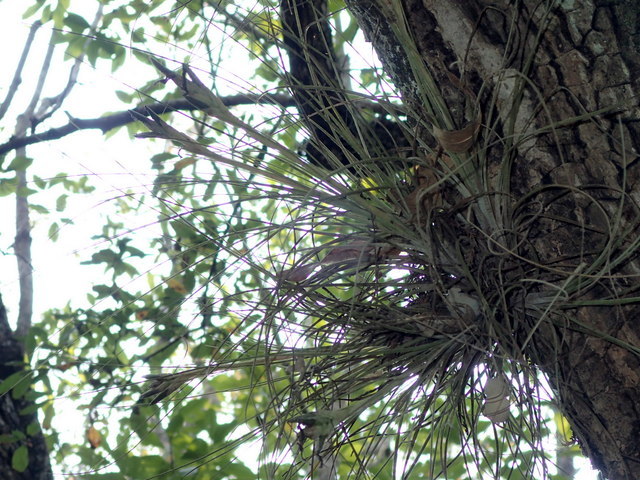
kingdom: Plantae
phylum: Tracheophyta
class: Liliopsida
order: Poales
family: Bromeliaceae
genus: Tillandsia
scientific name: Tillandsia bartramii
